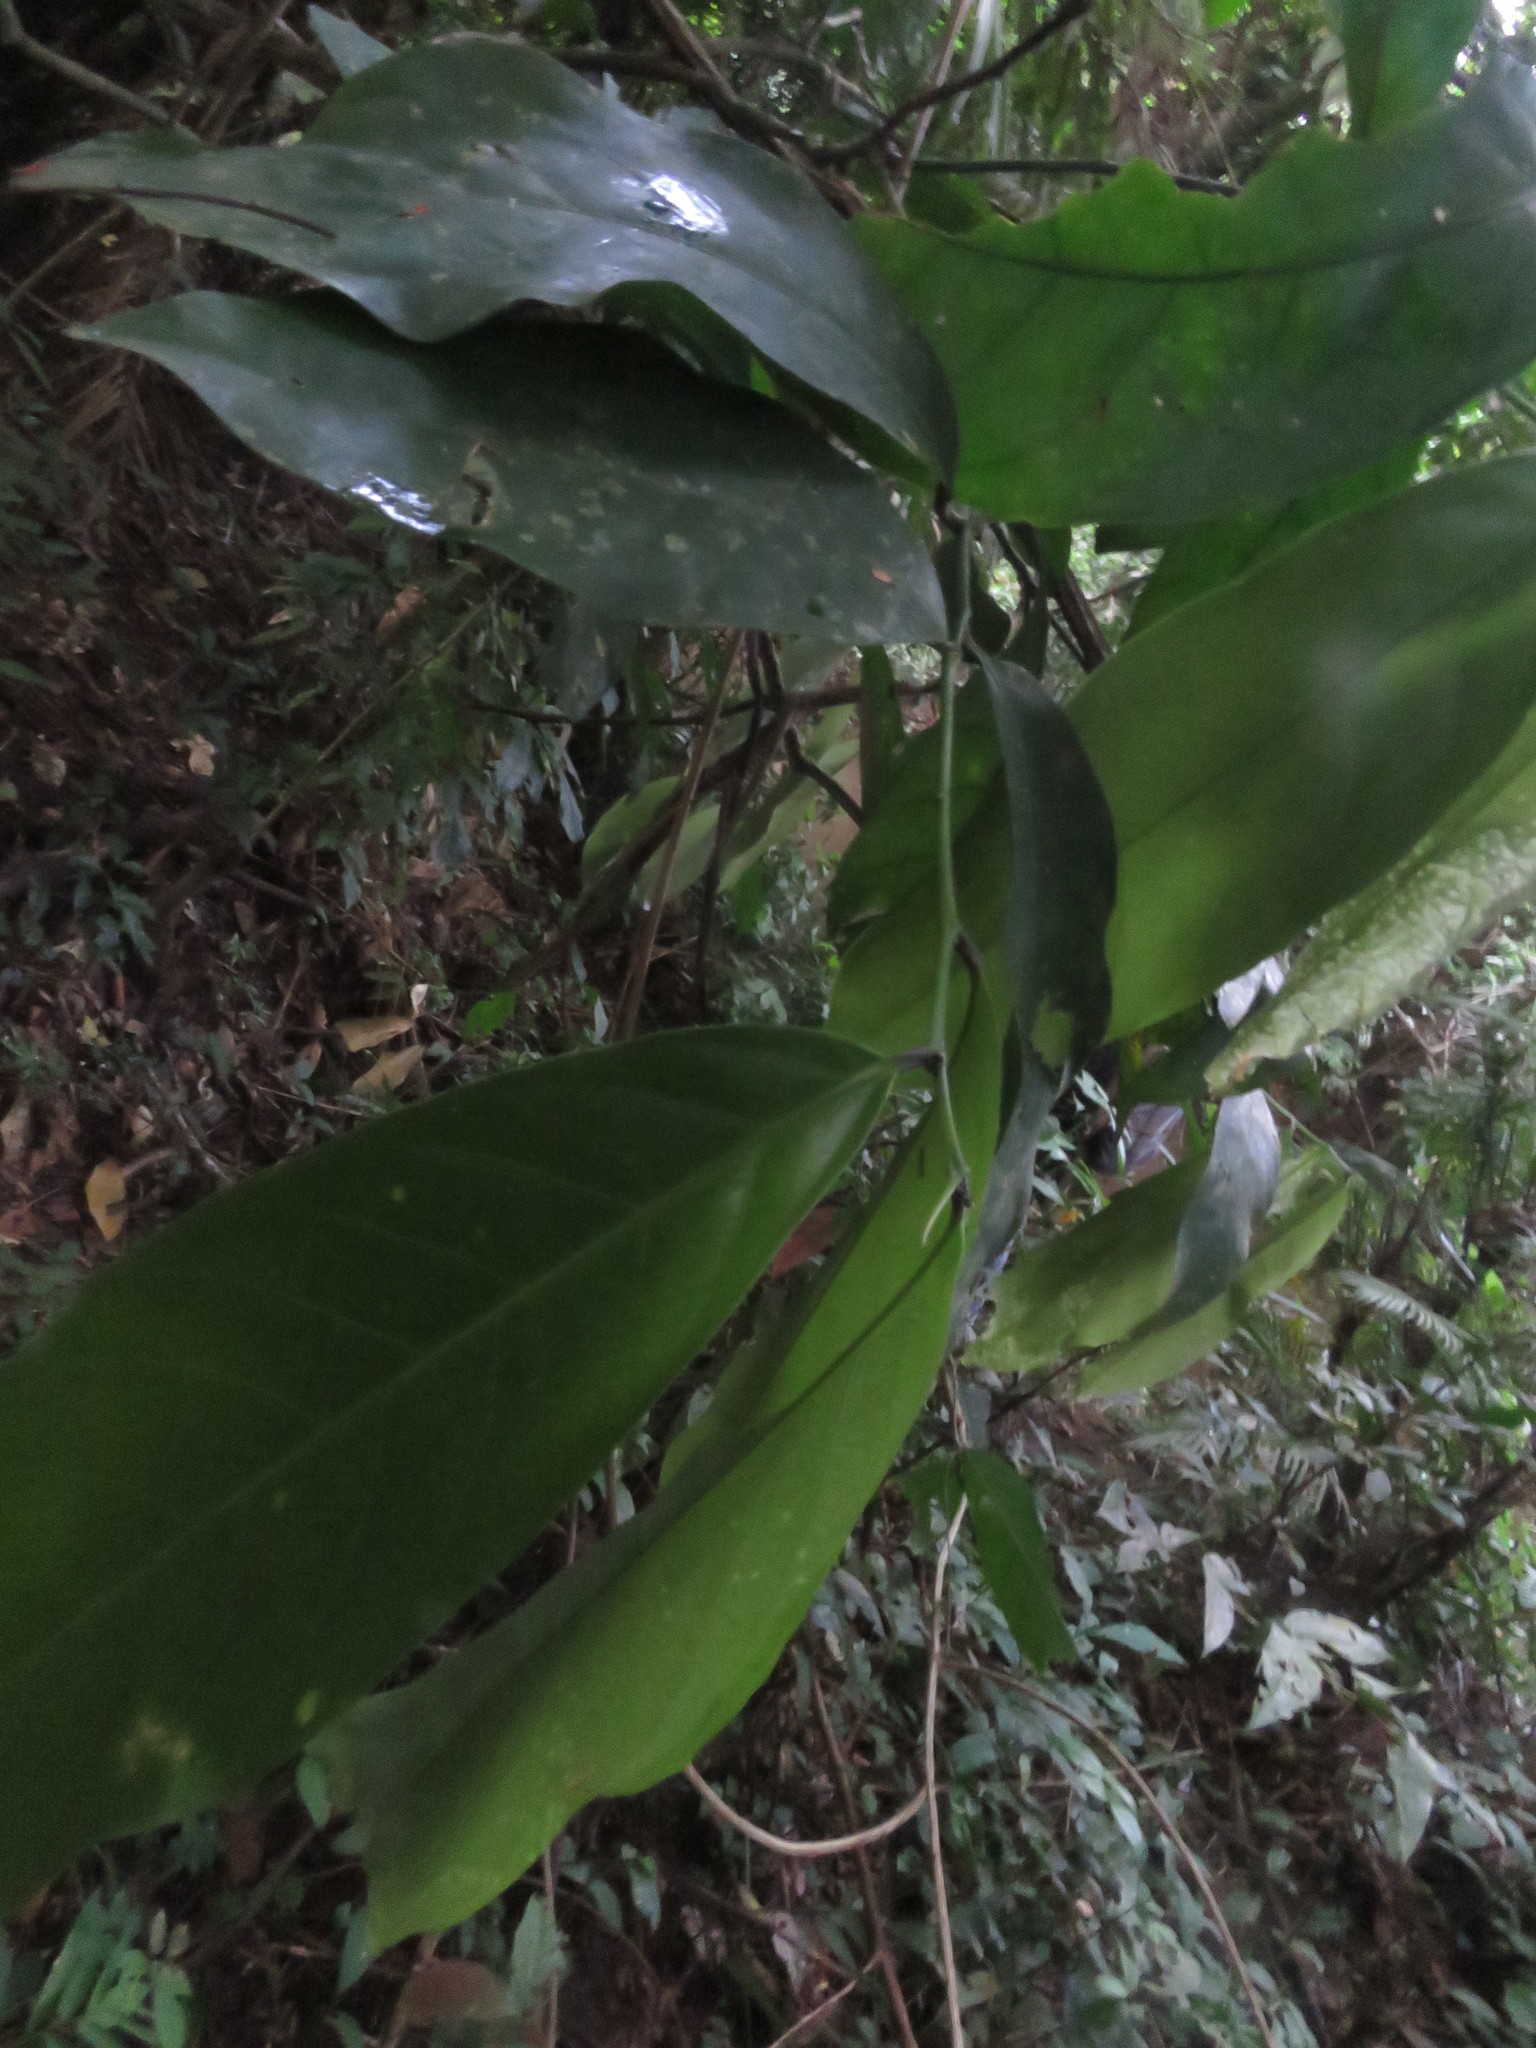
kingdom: Plantae
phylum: Tracheophyta
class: Magnoliopsida
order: Malpighiales
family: Violaceae
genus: Leonia
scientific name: Leonia crassa
